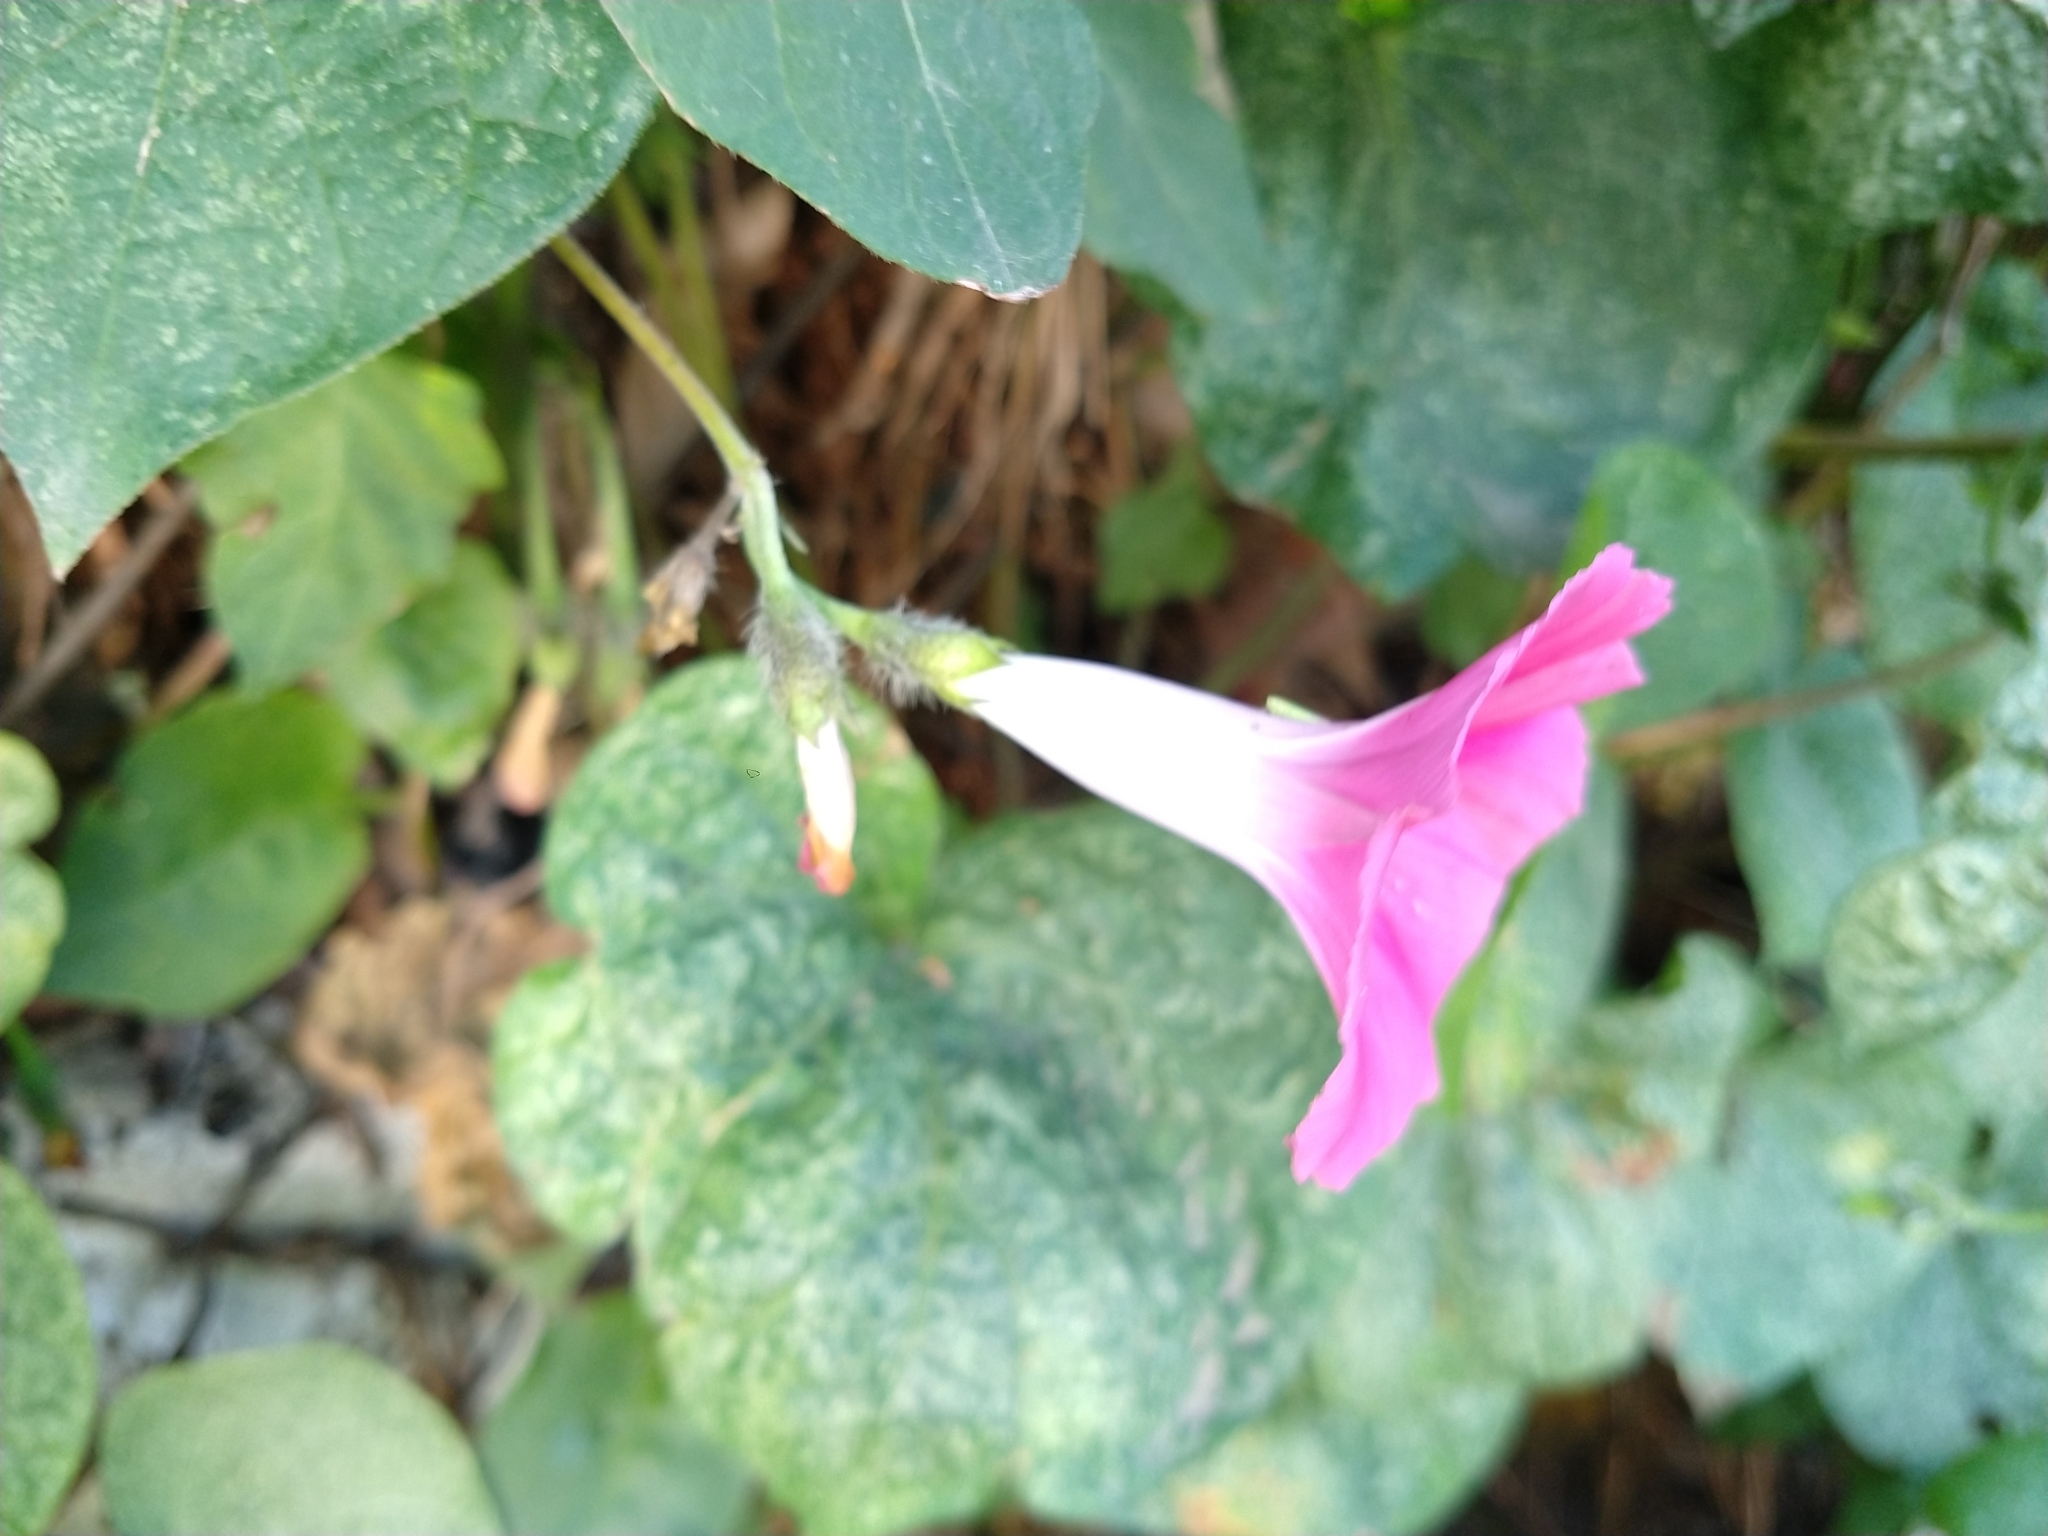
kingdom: Plantae
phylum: Tracheophyta
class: Magnoliopsida
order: Solanales
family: Convolvulaceae
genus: Ipomoea
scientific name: Ipomoea purpurea
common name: Common morning-glory
